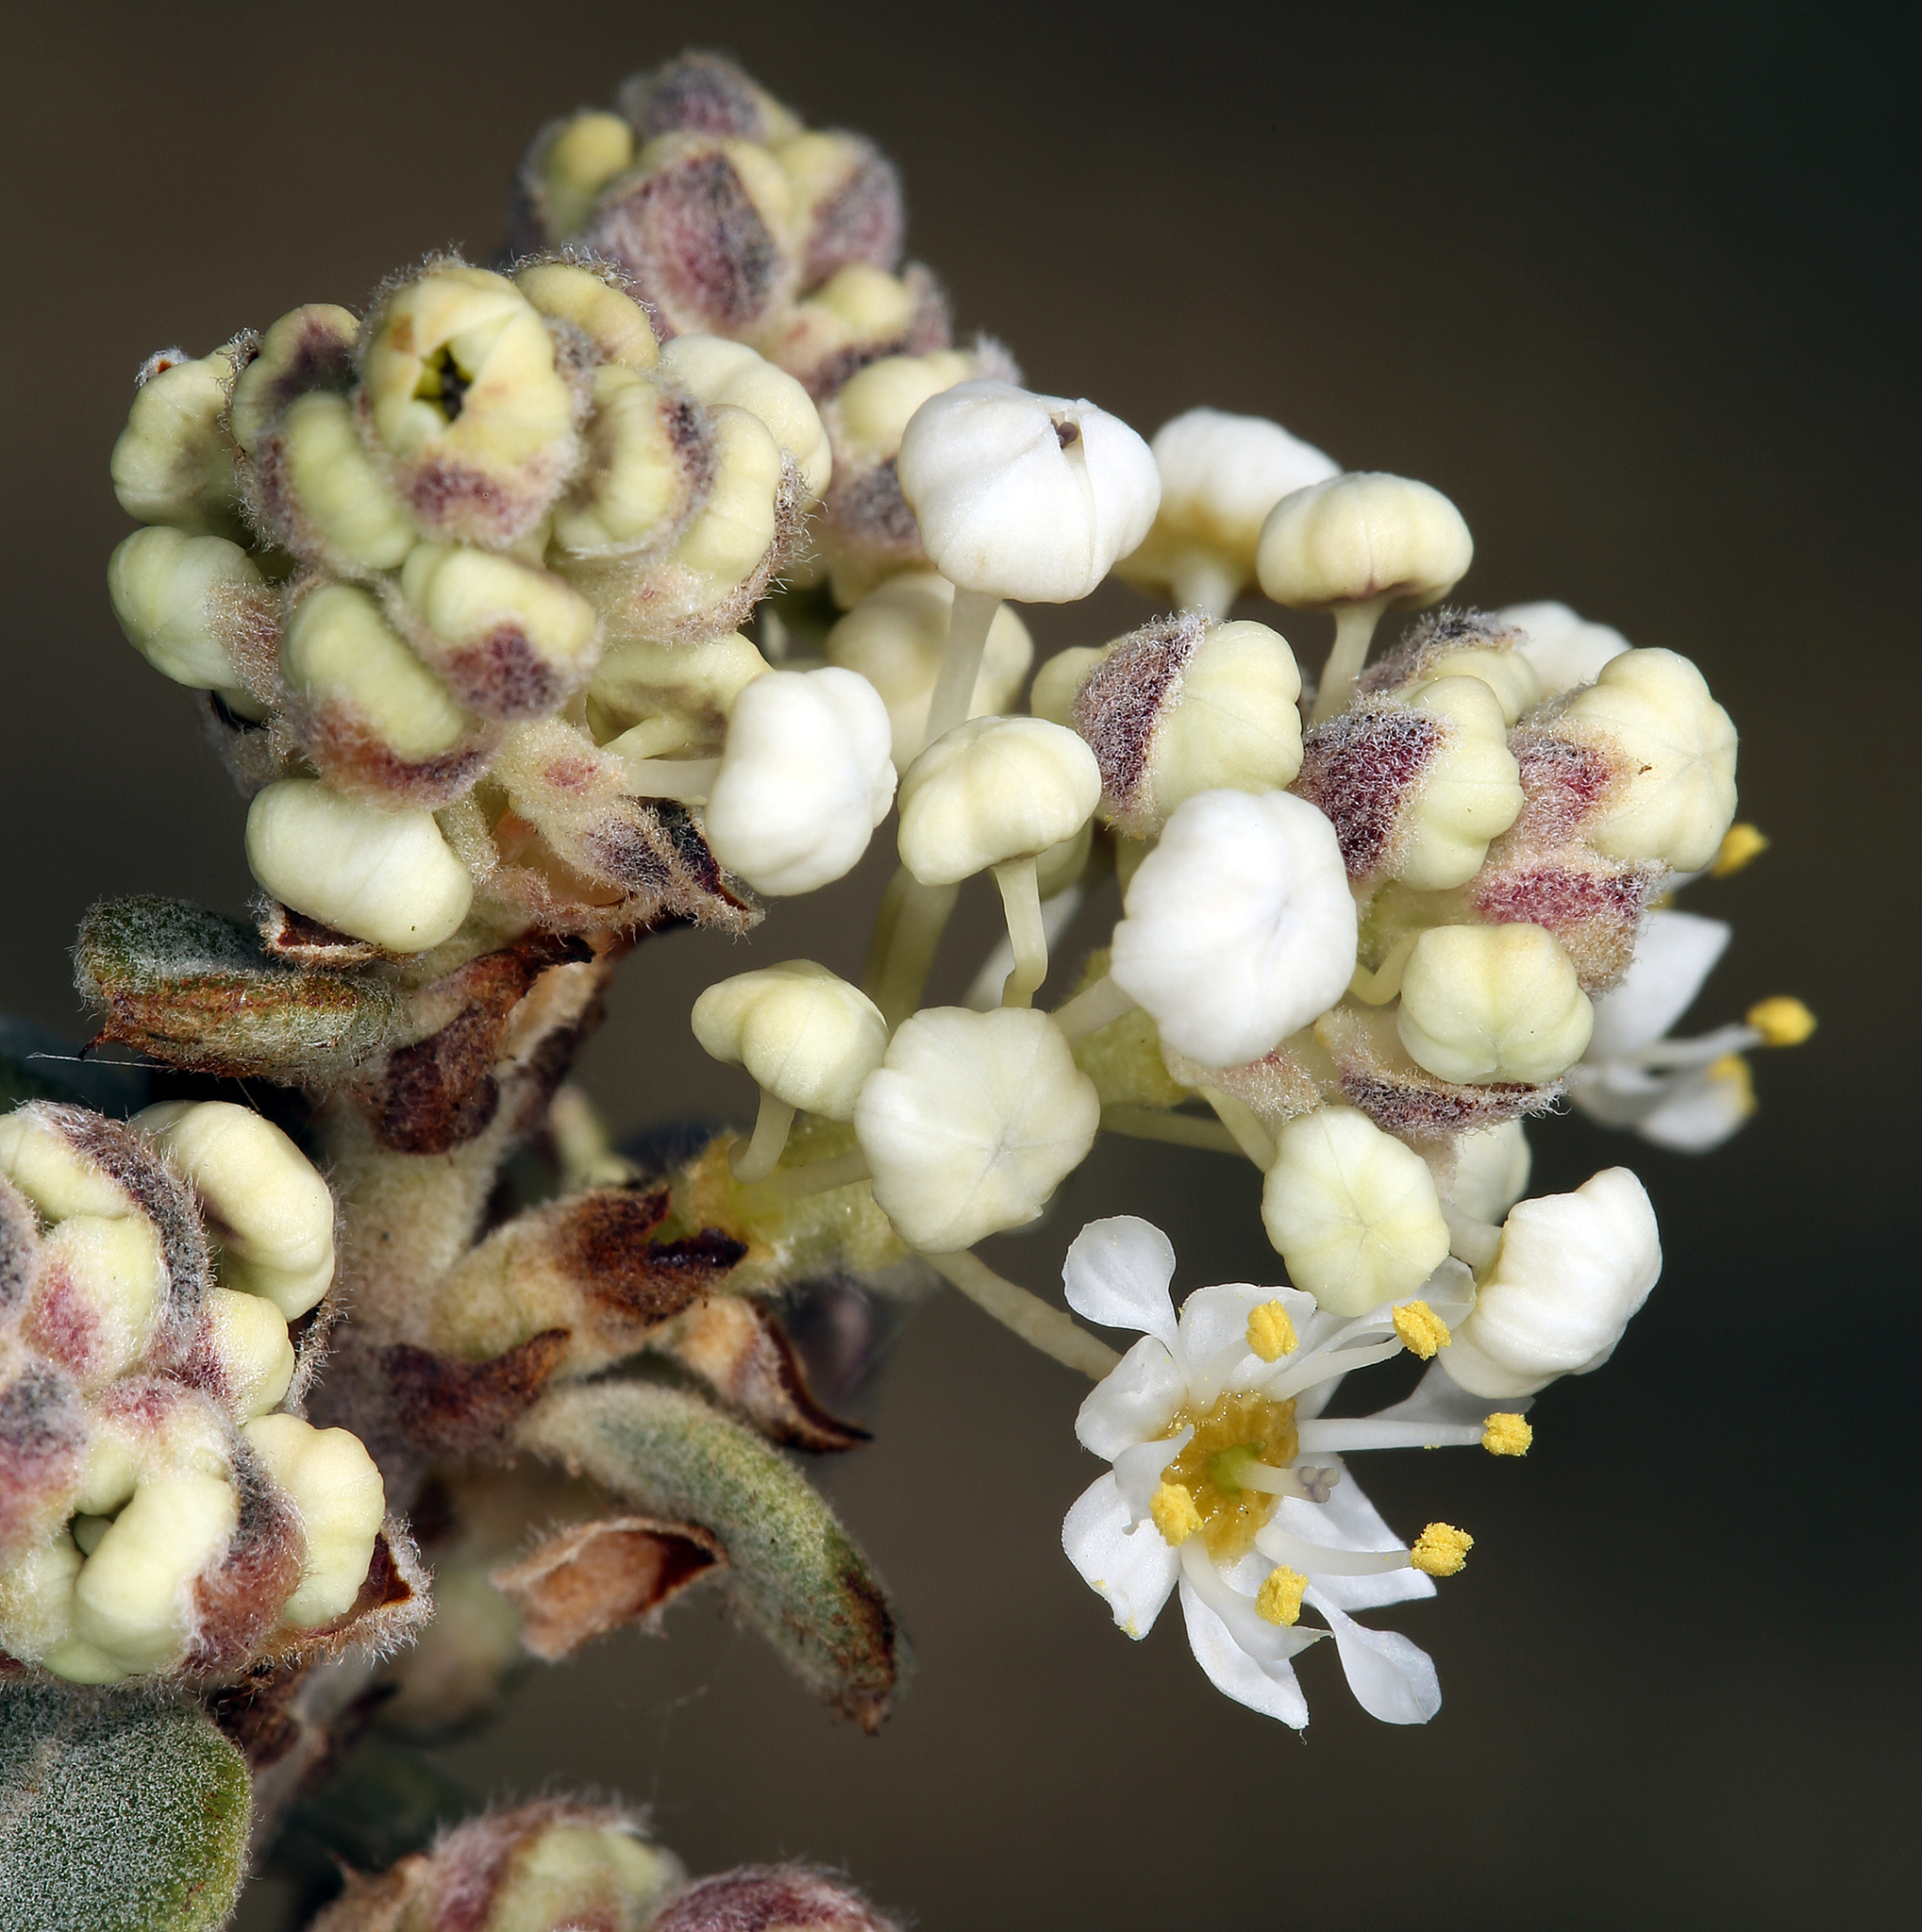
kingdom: Plantae
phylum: Tracheophyta
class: Magnoliopsida
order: Rosales
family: Rhamnaceae
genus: Ceanothus
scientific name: Ceanothus pauciflorus
